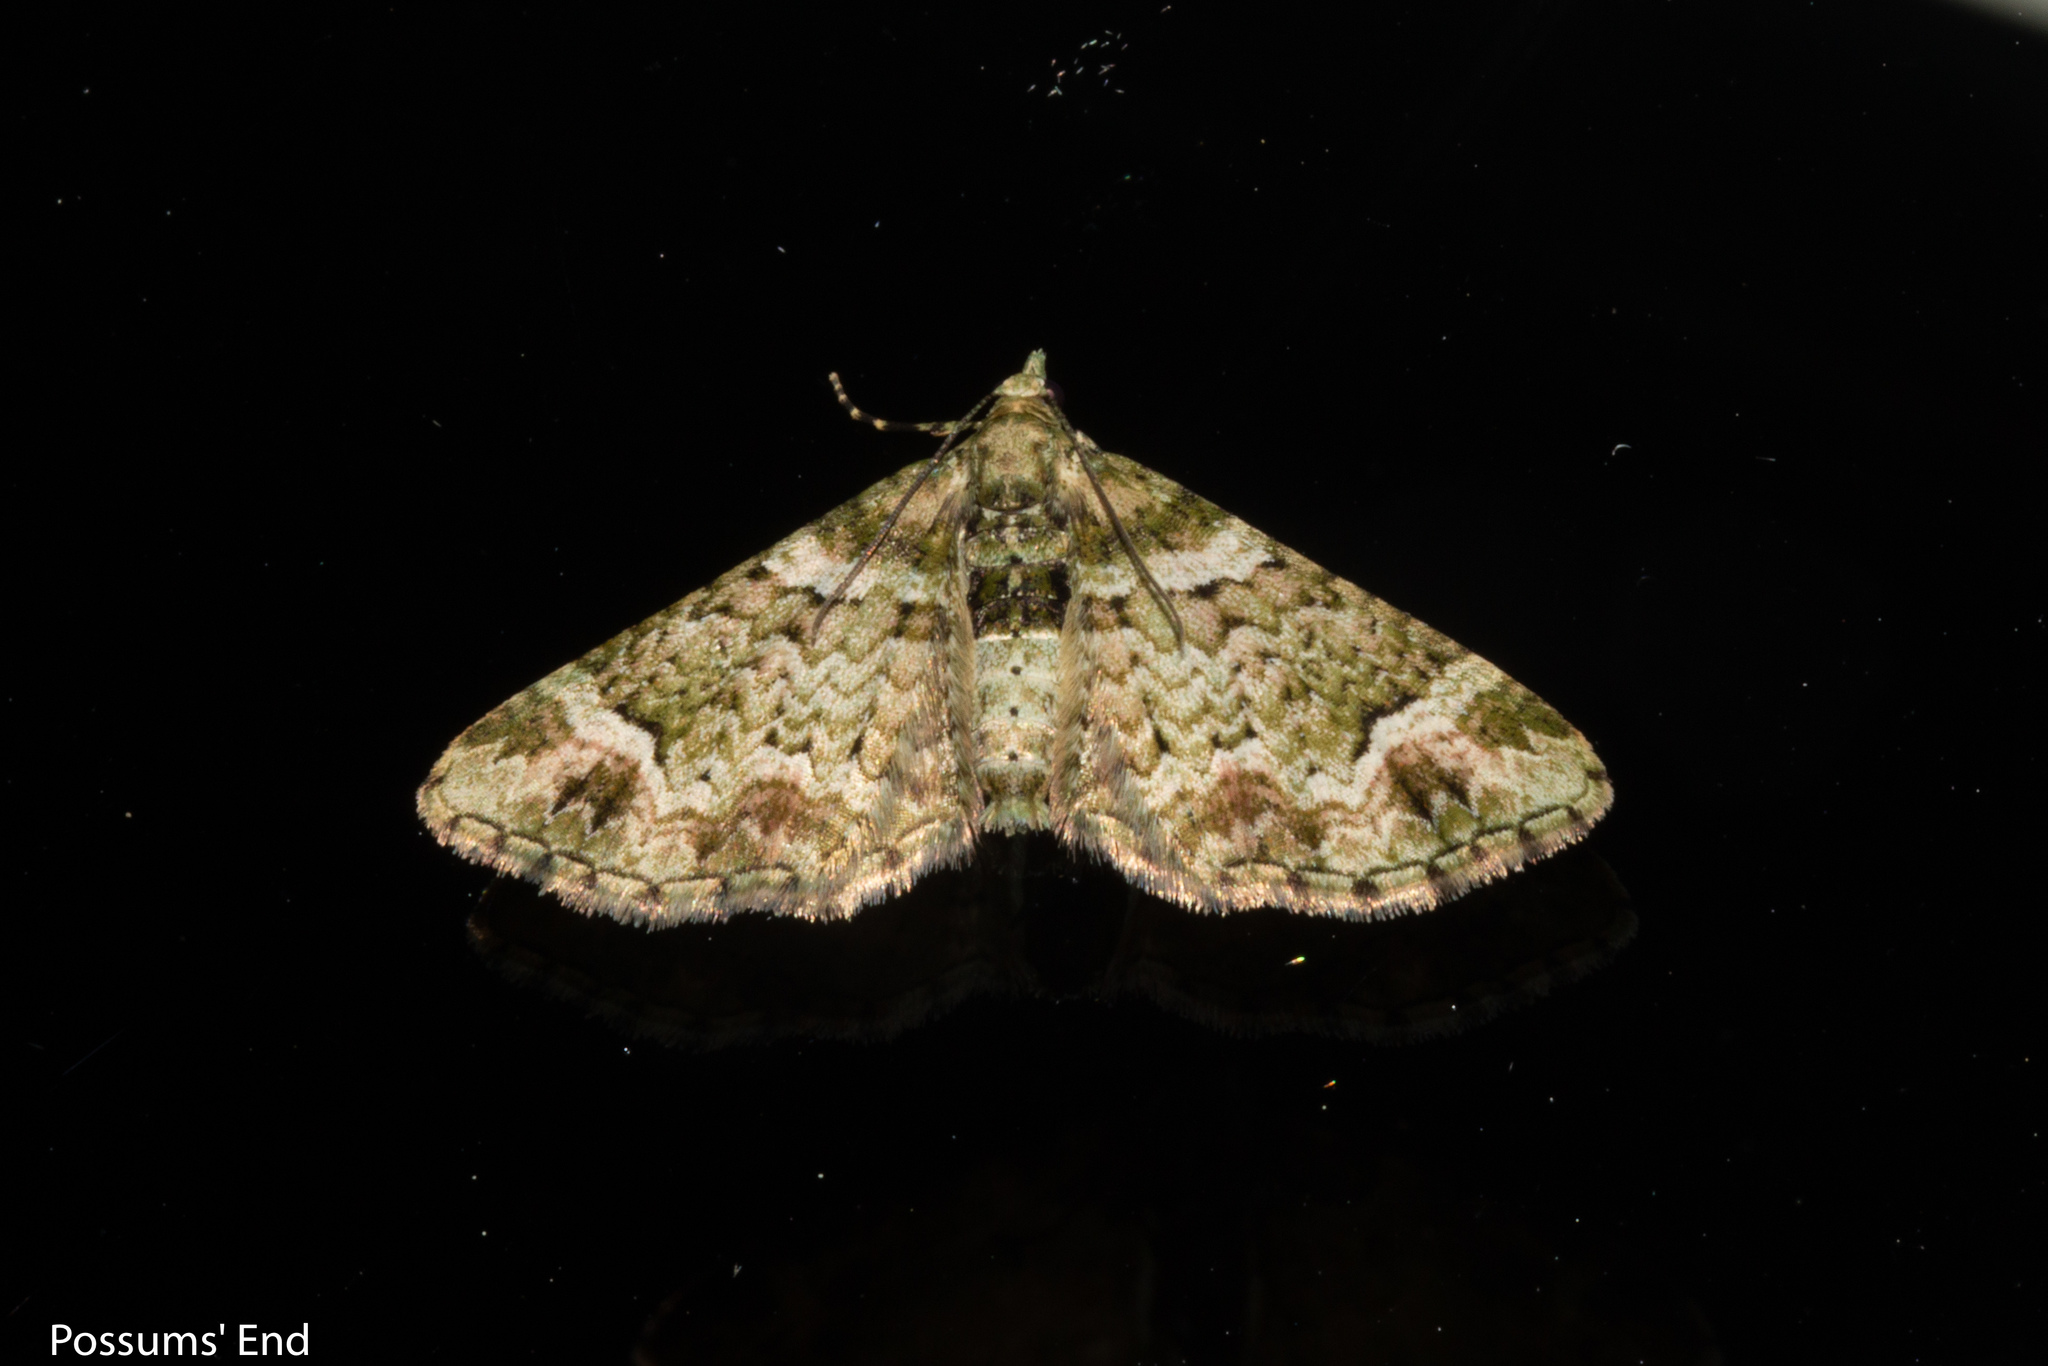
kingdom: Animalia
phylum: Arthropoda
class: Insecta
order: Lepidoptera
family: Geometridae
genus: Idaea
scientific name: Idaea mutanda
